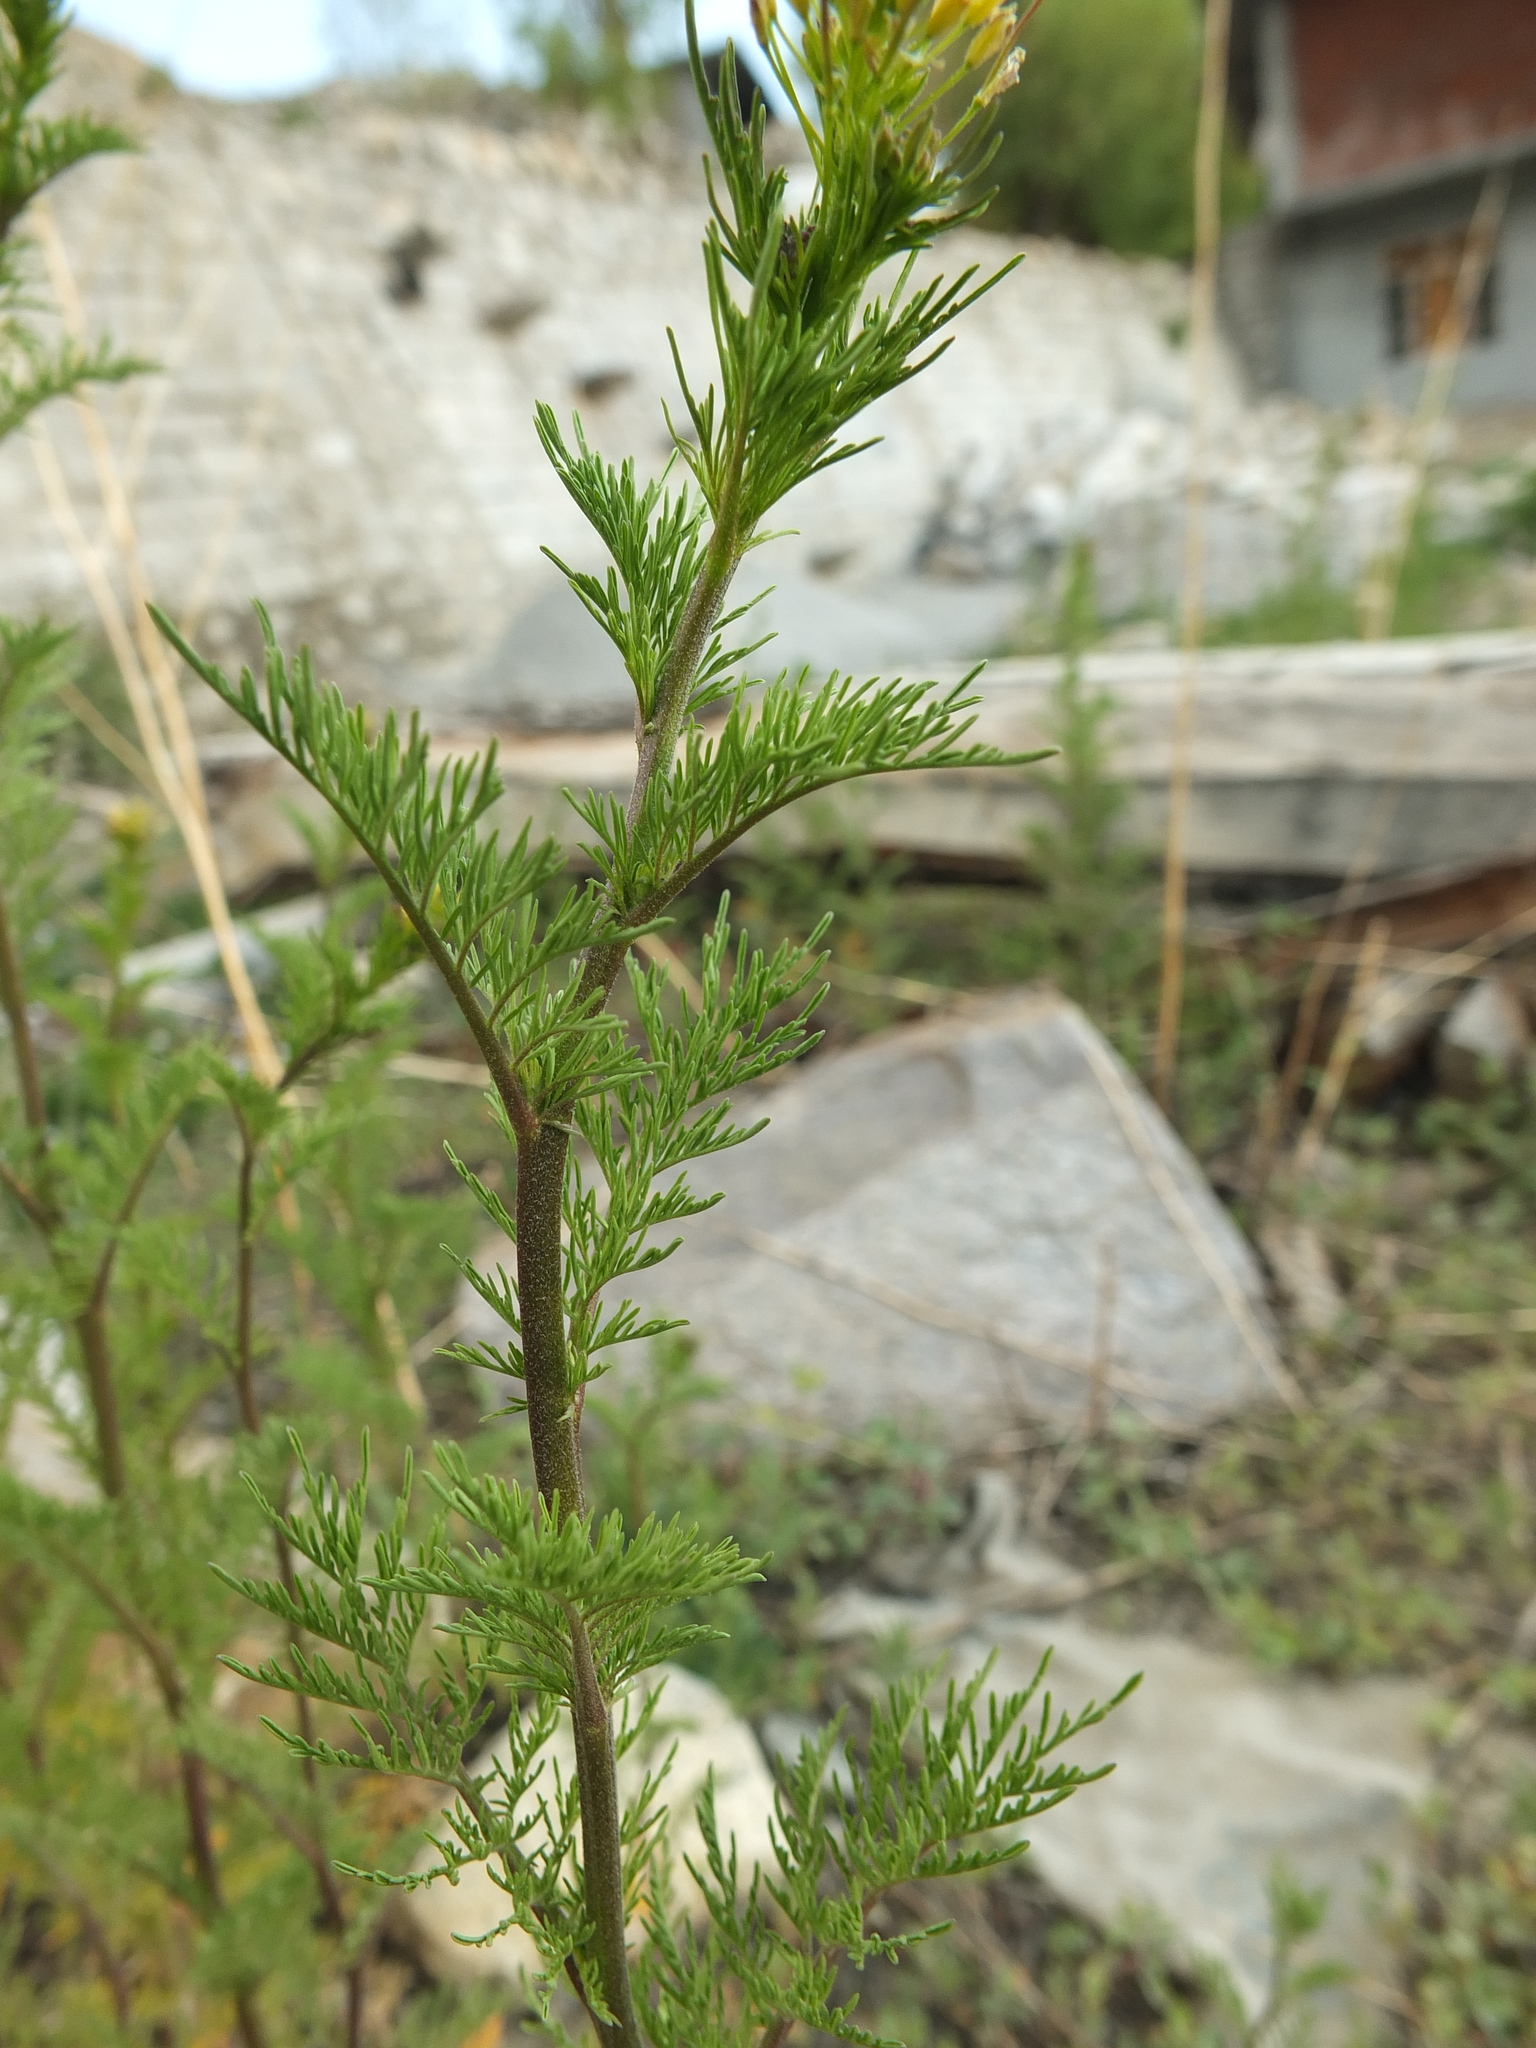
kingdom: Plantae
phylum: Tracheophyta
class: Magnoliopsida
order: Brassicales
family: Brassicaceae
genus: Descurainia
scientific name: Descurainia sophia
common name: Flixweed
